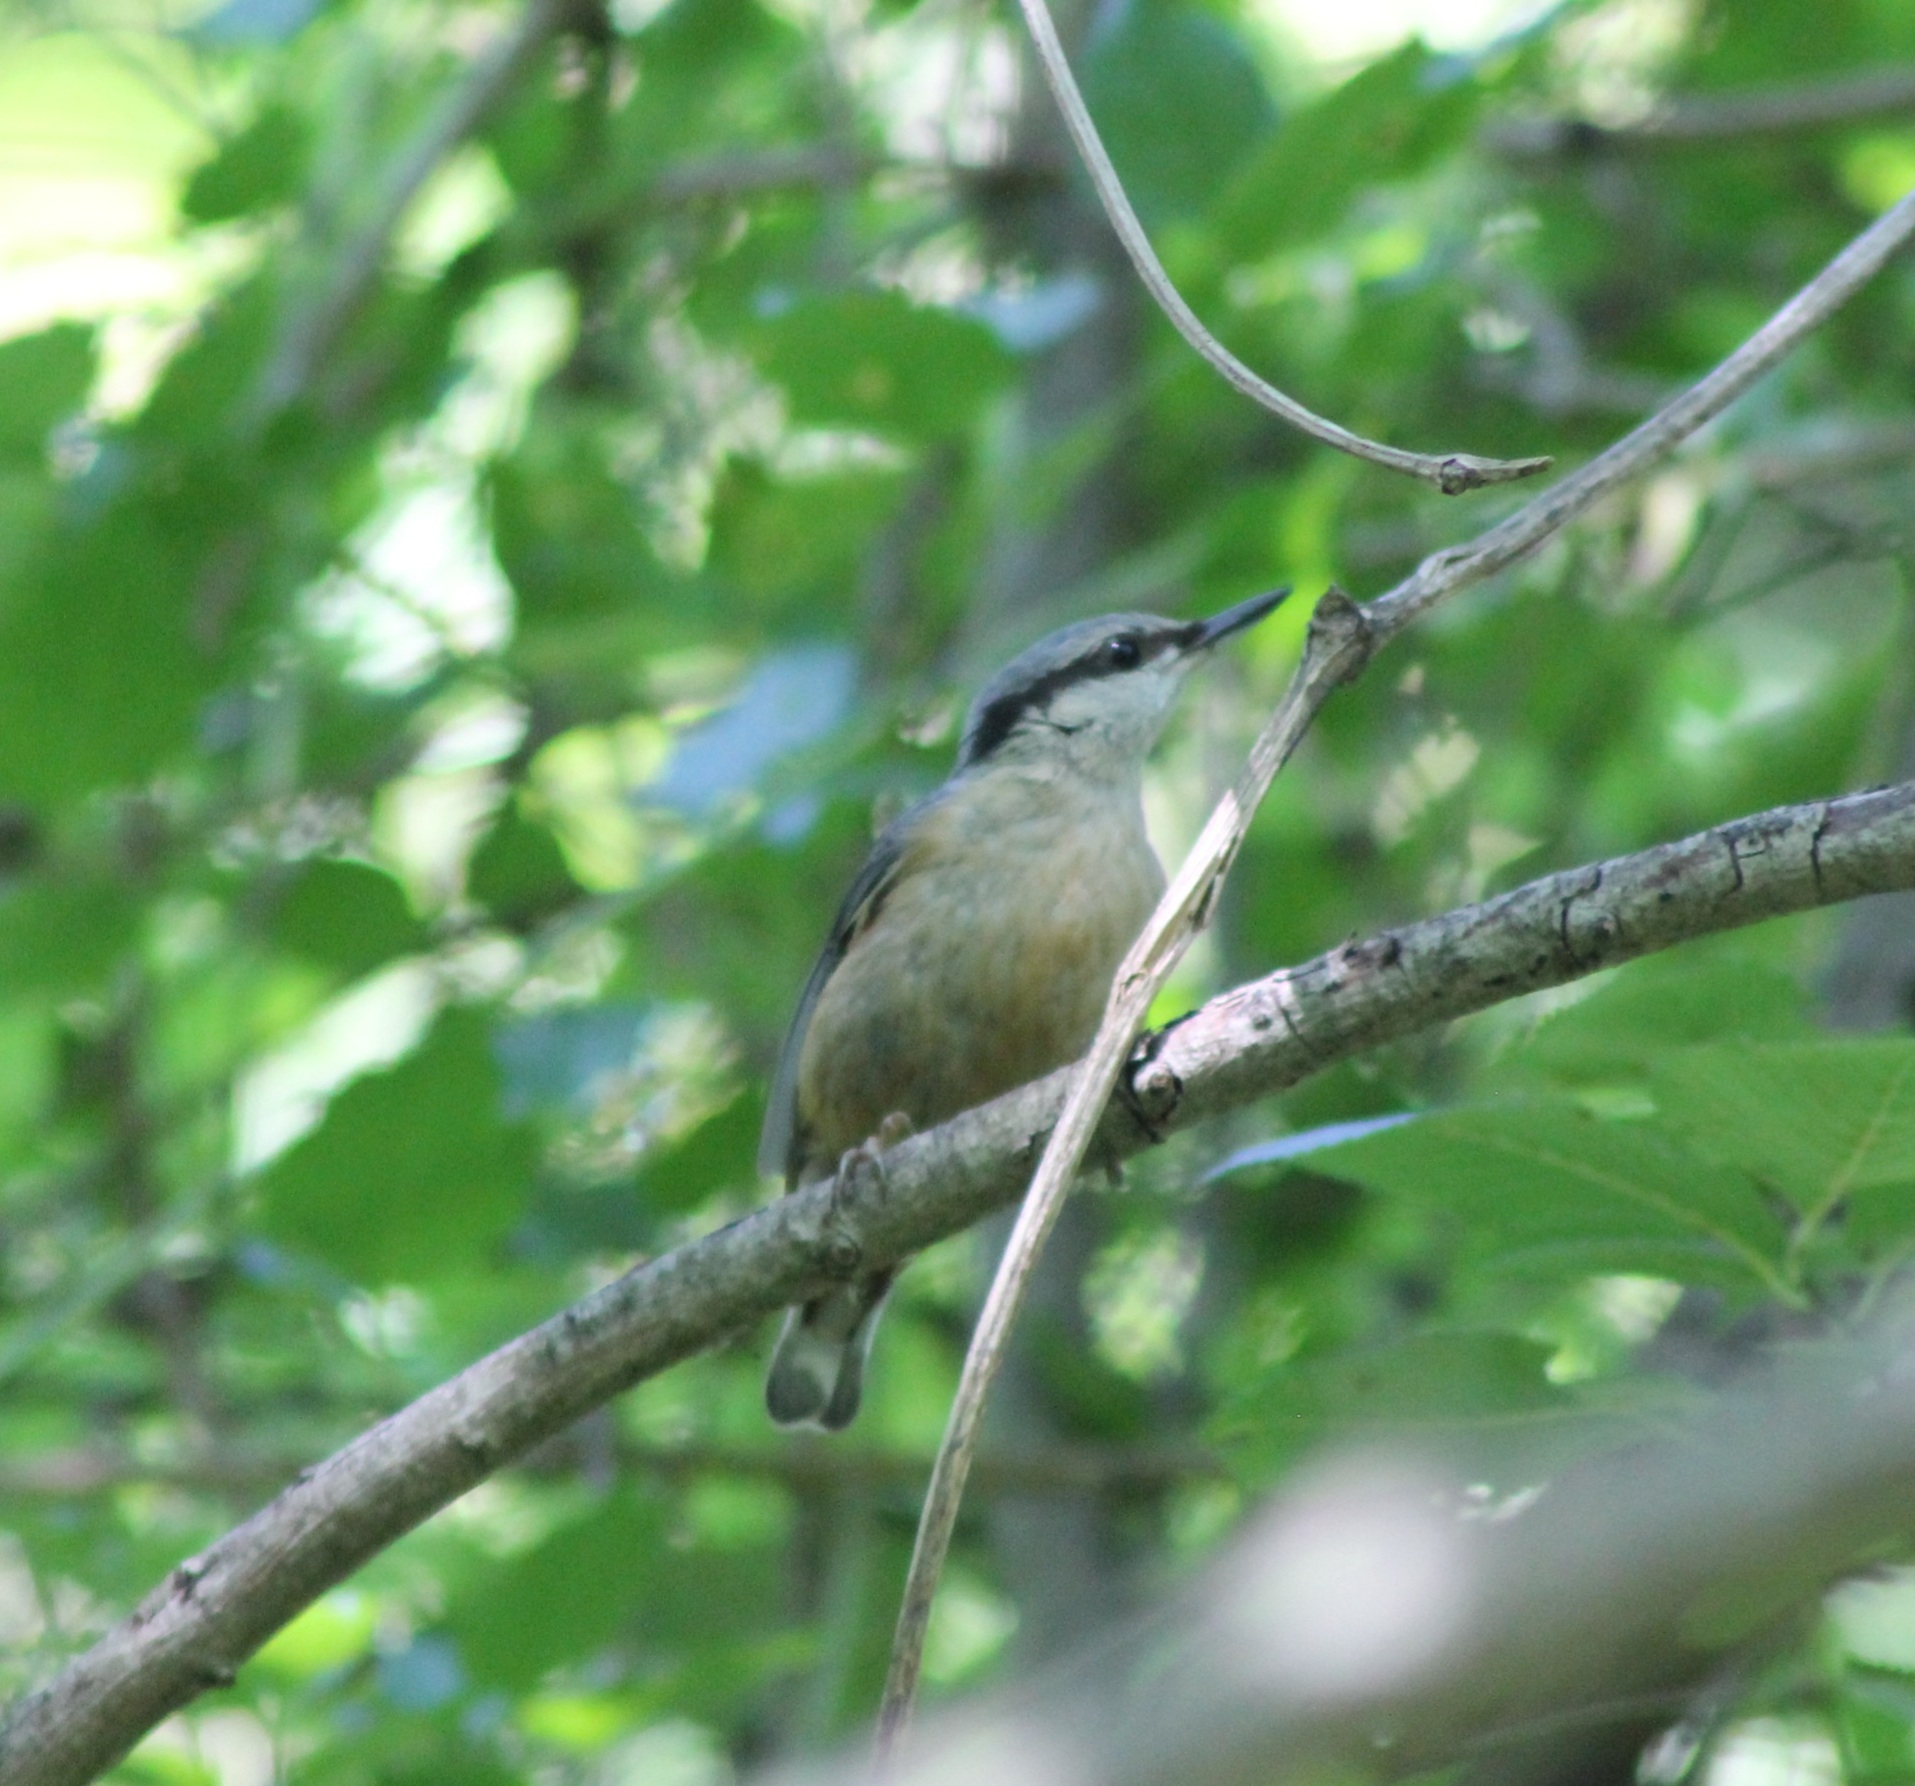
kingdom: Animalia
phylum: Chordata
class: Aves
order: Passeriformes
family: Sittidae
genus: Sitta
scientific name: Sitta europaea
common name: Eurasian nuthatch
